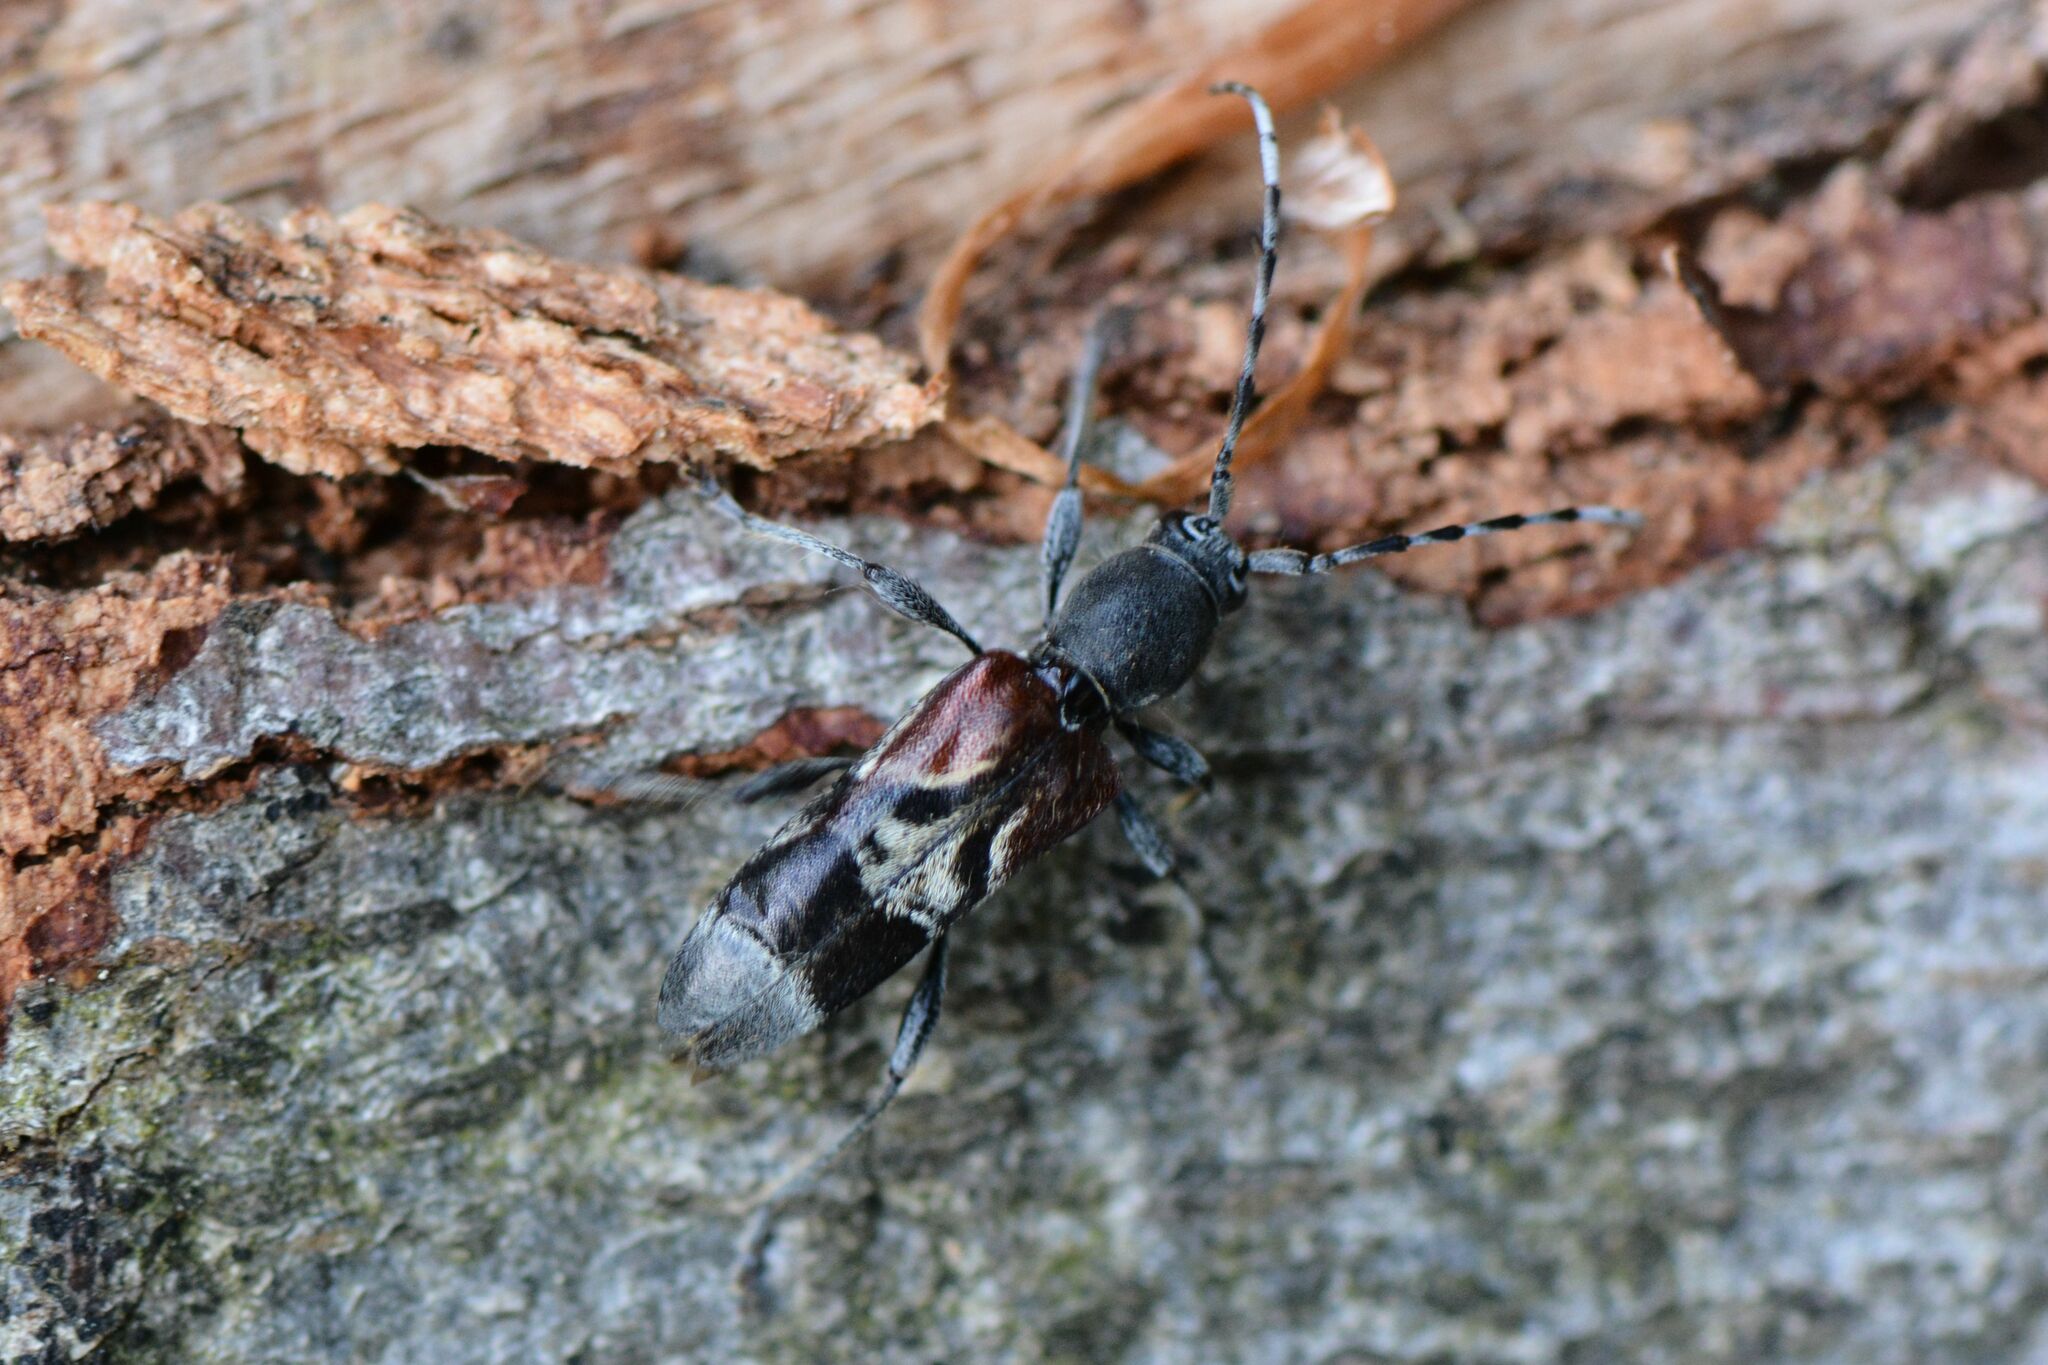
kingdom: Animalia
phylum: Arthropoda
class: Insecta
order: Coleoptera
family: Cerambycidae
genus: Anaglyptus
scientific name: Anaglyptus mysticus
